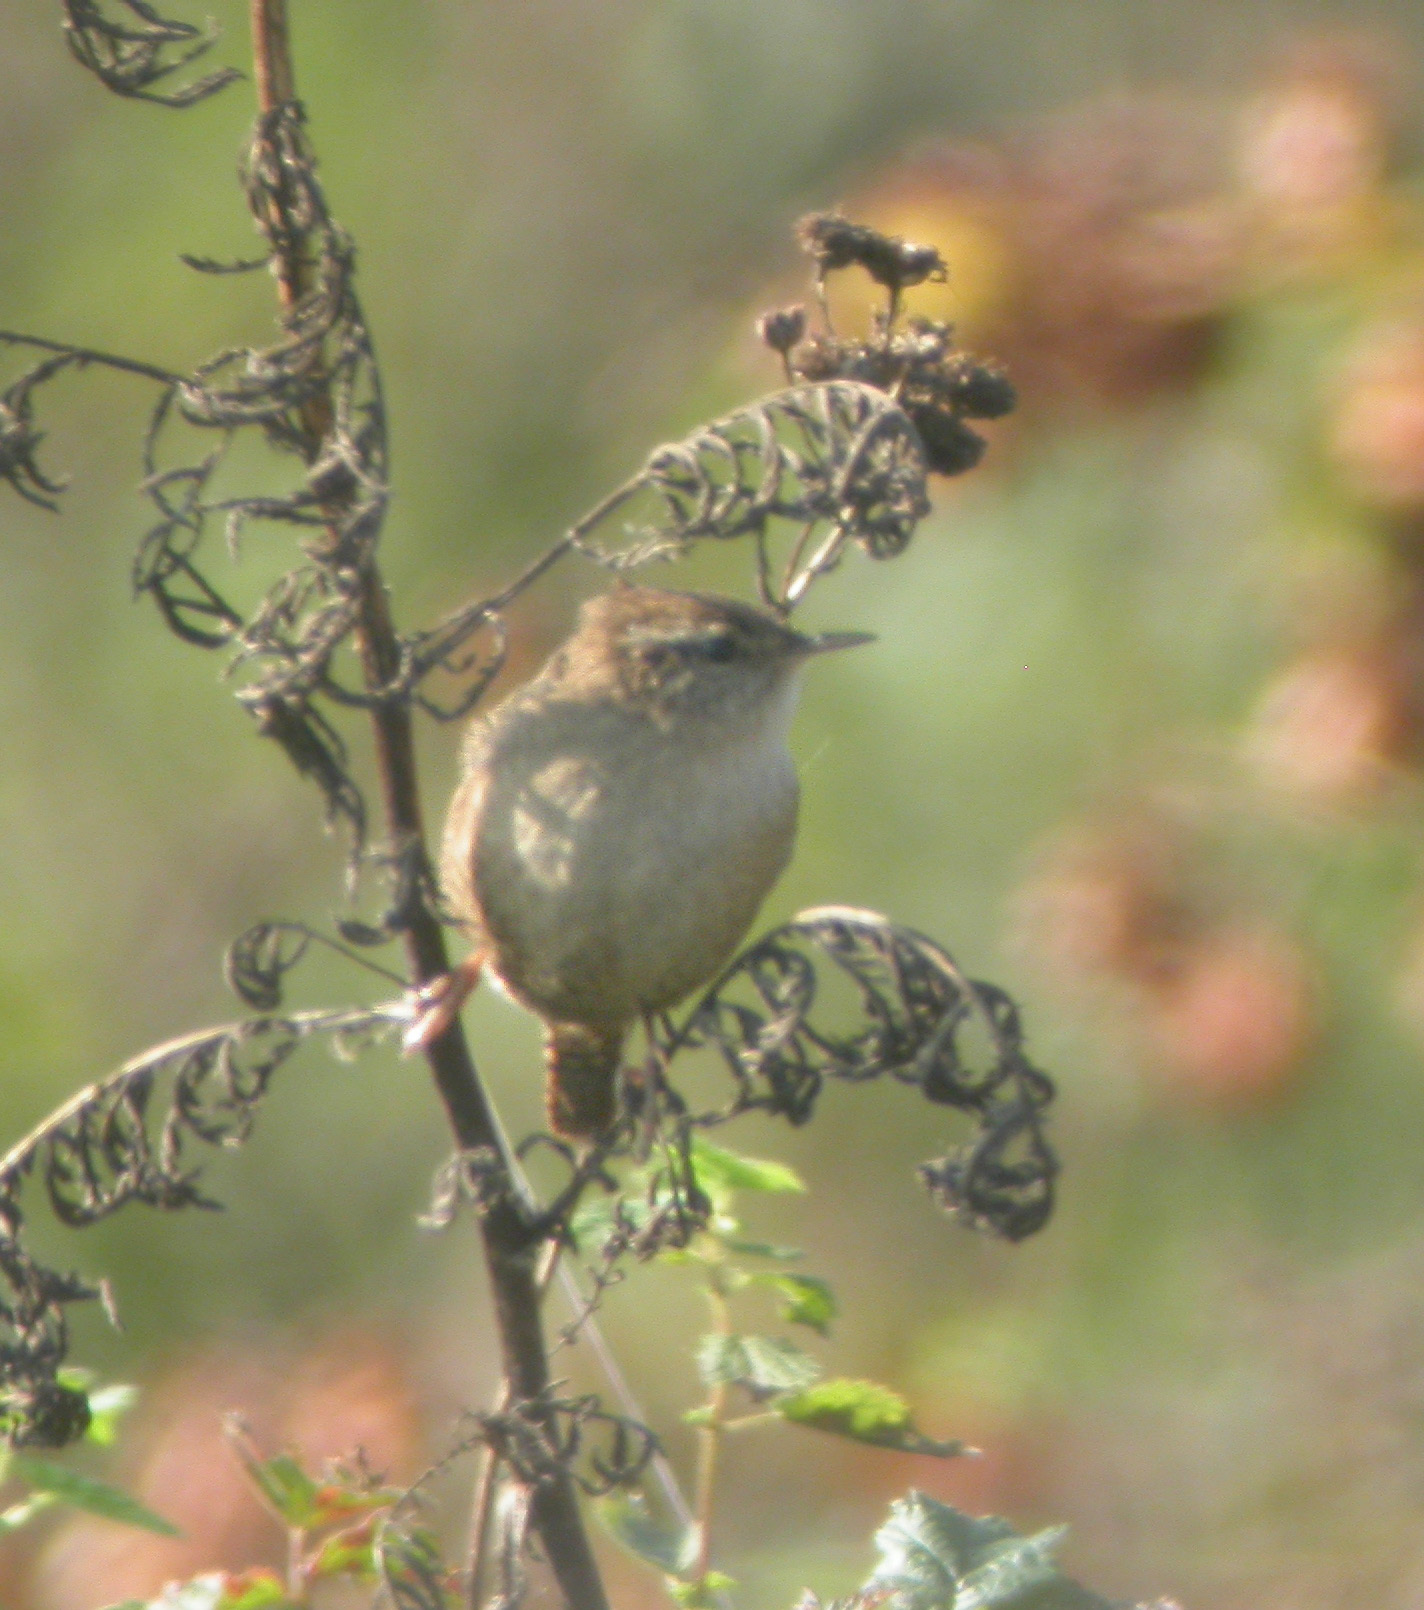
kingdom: Animalia
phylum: Chordata
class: Aves
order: Passeriformes
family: Troglodytidae
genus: Troglodytes
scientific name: Troglodytes troglodytes
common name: Eurasian wren
